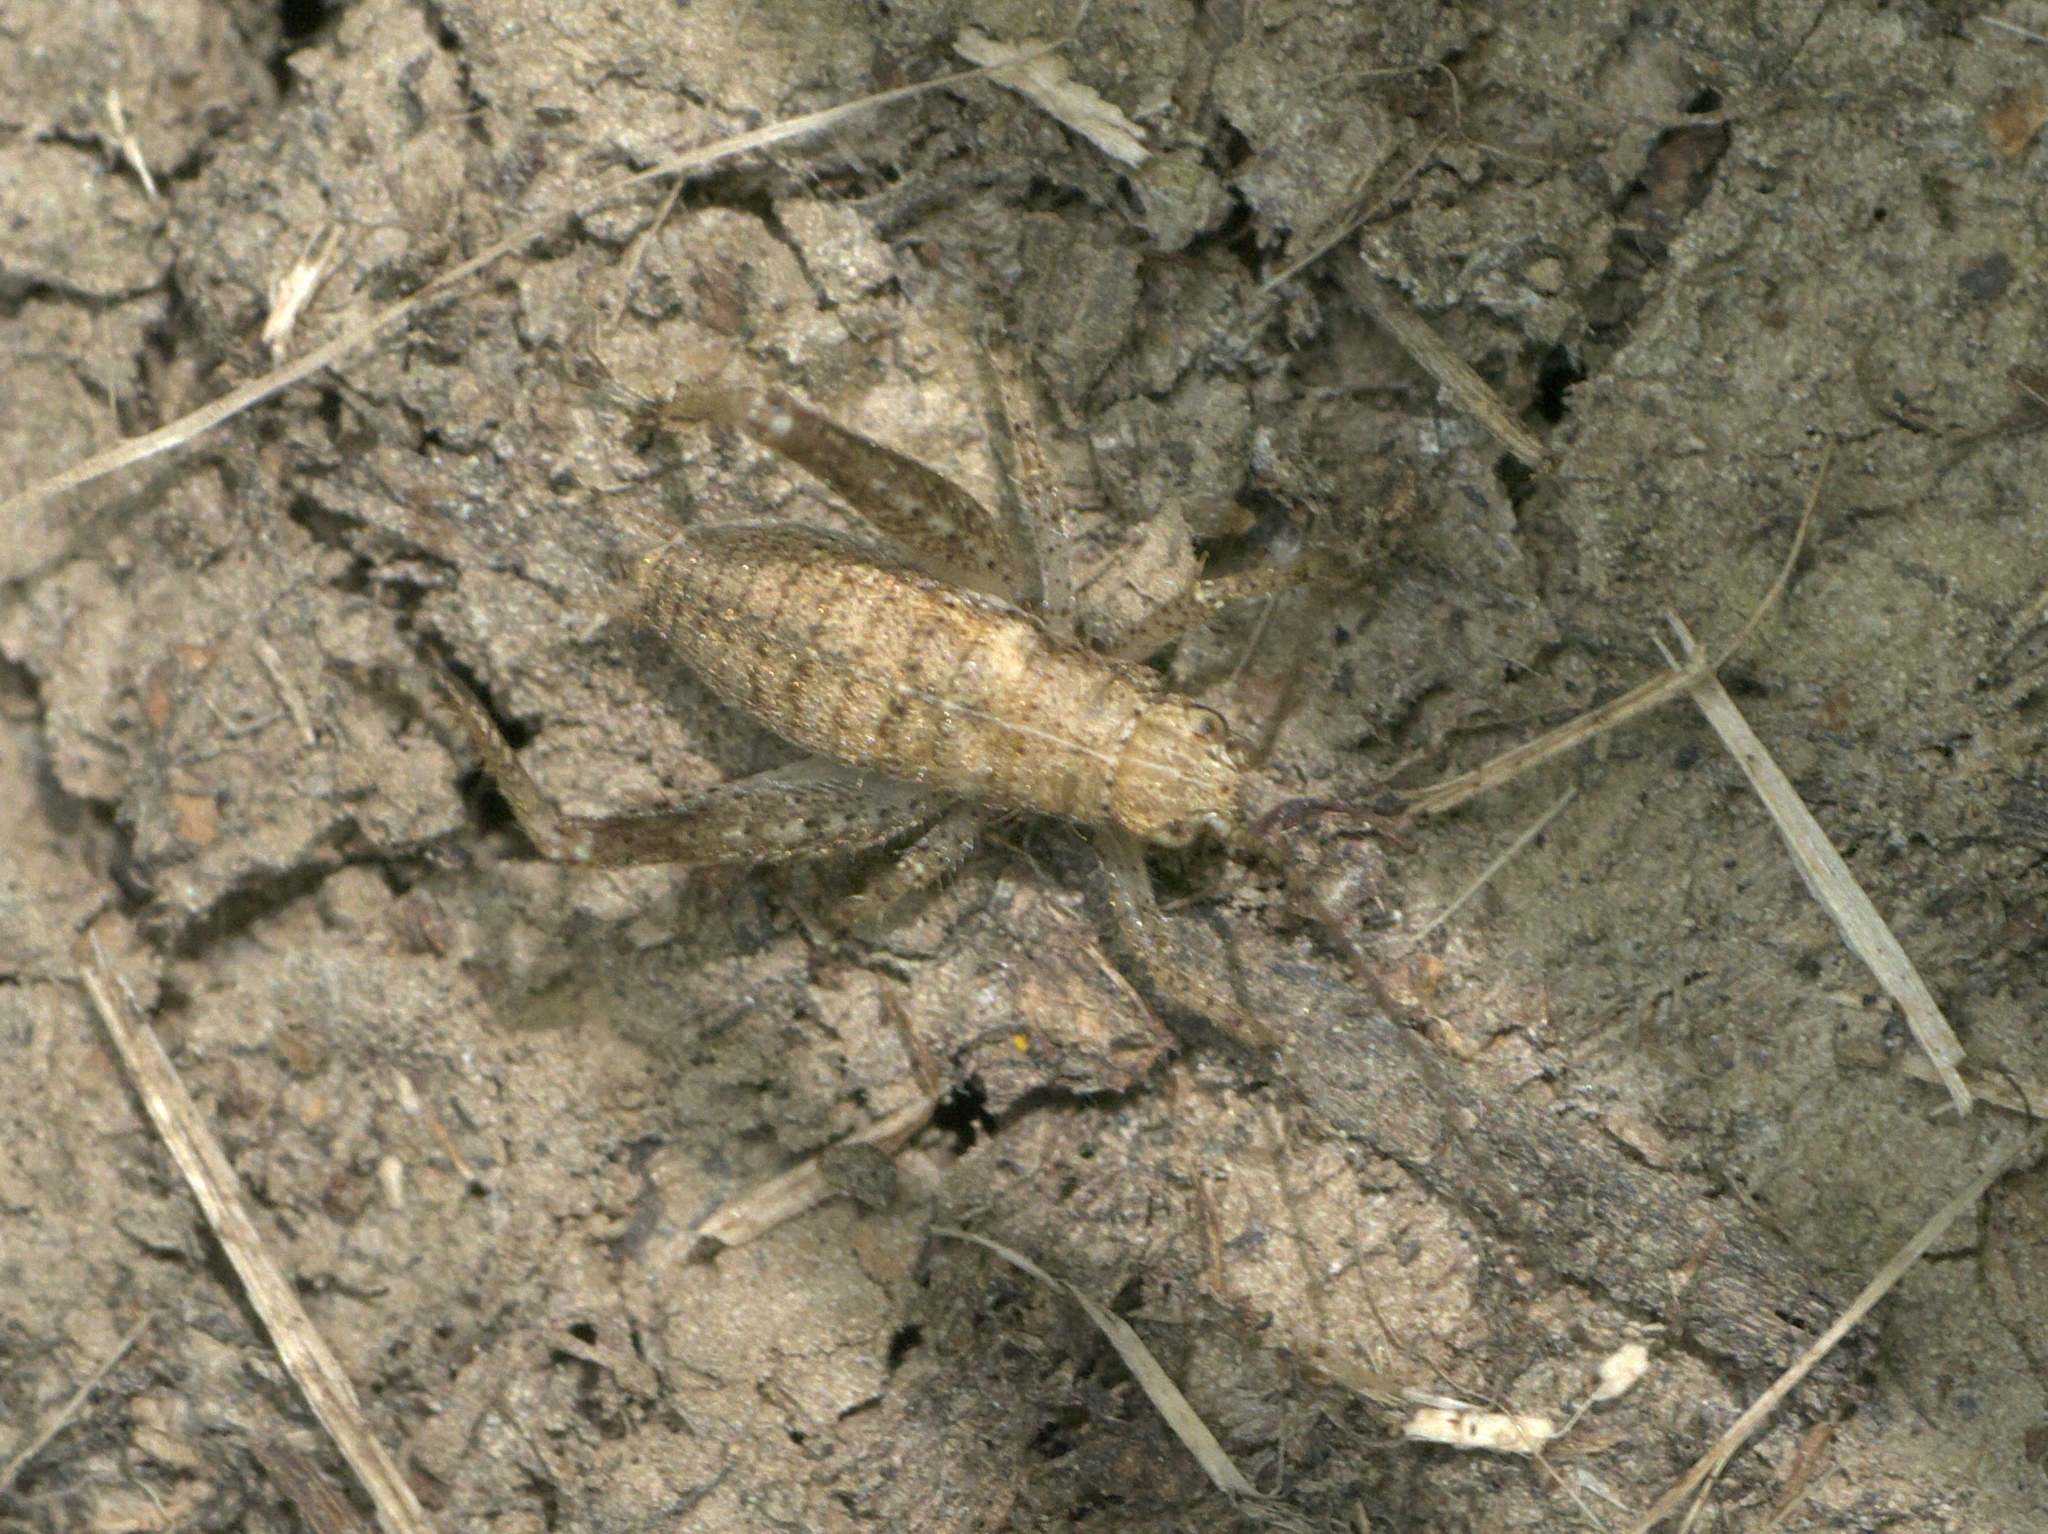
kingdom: Animalia
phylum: Arthropoda
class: Insecta
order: Orthoptera
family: Gryllidae
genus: Hapithus
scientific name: Hapithus agitator
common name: Restless bush cricket
